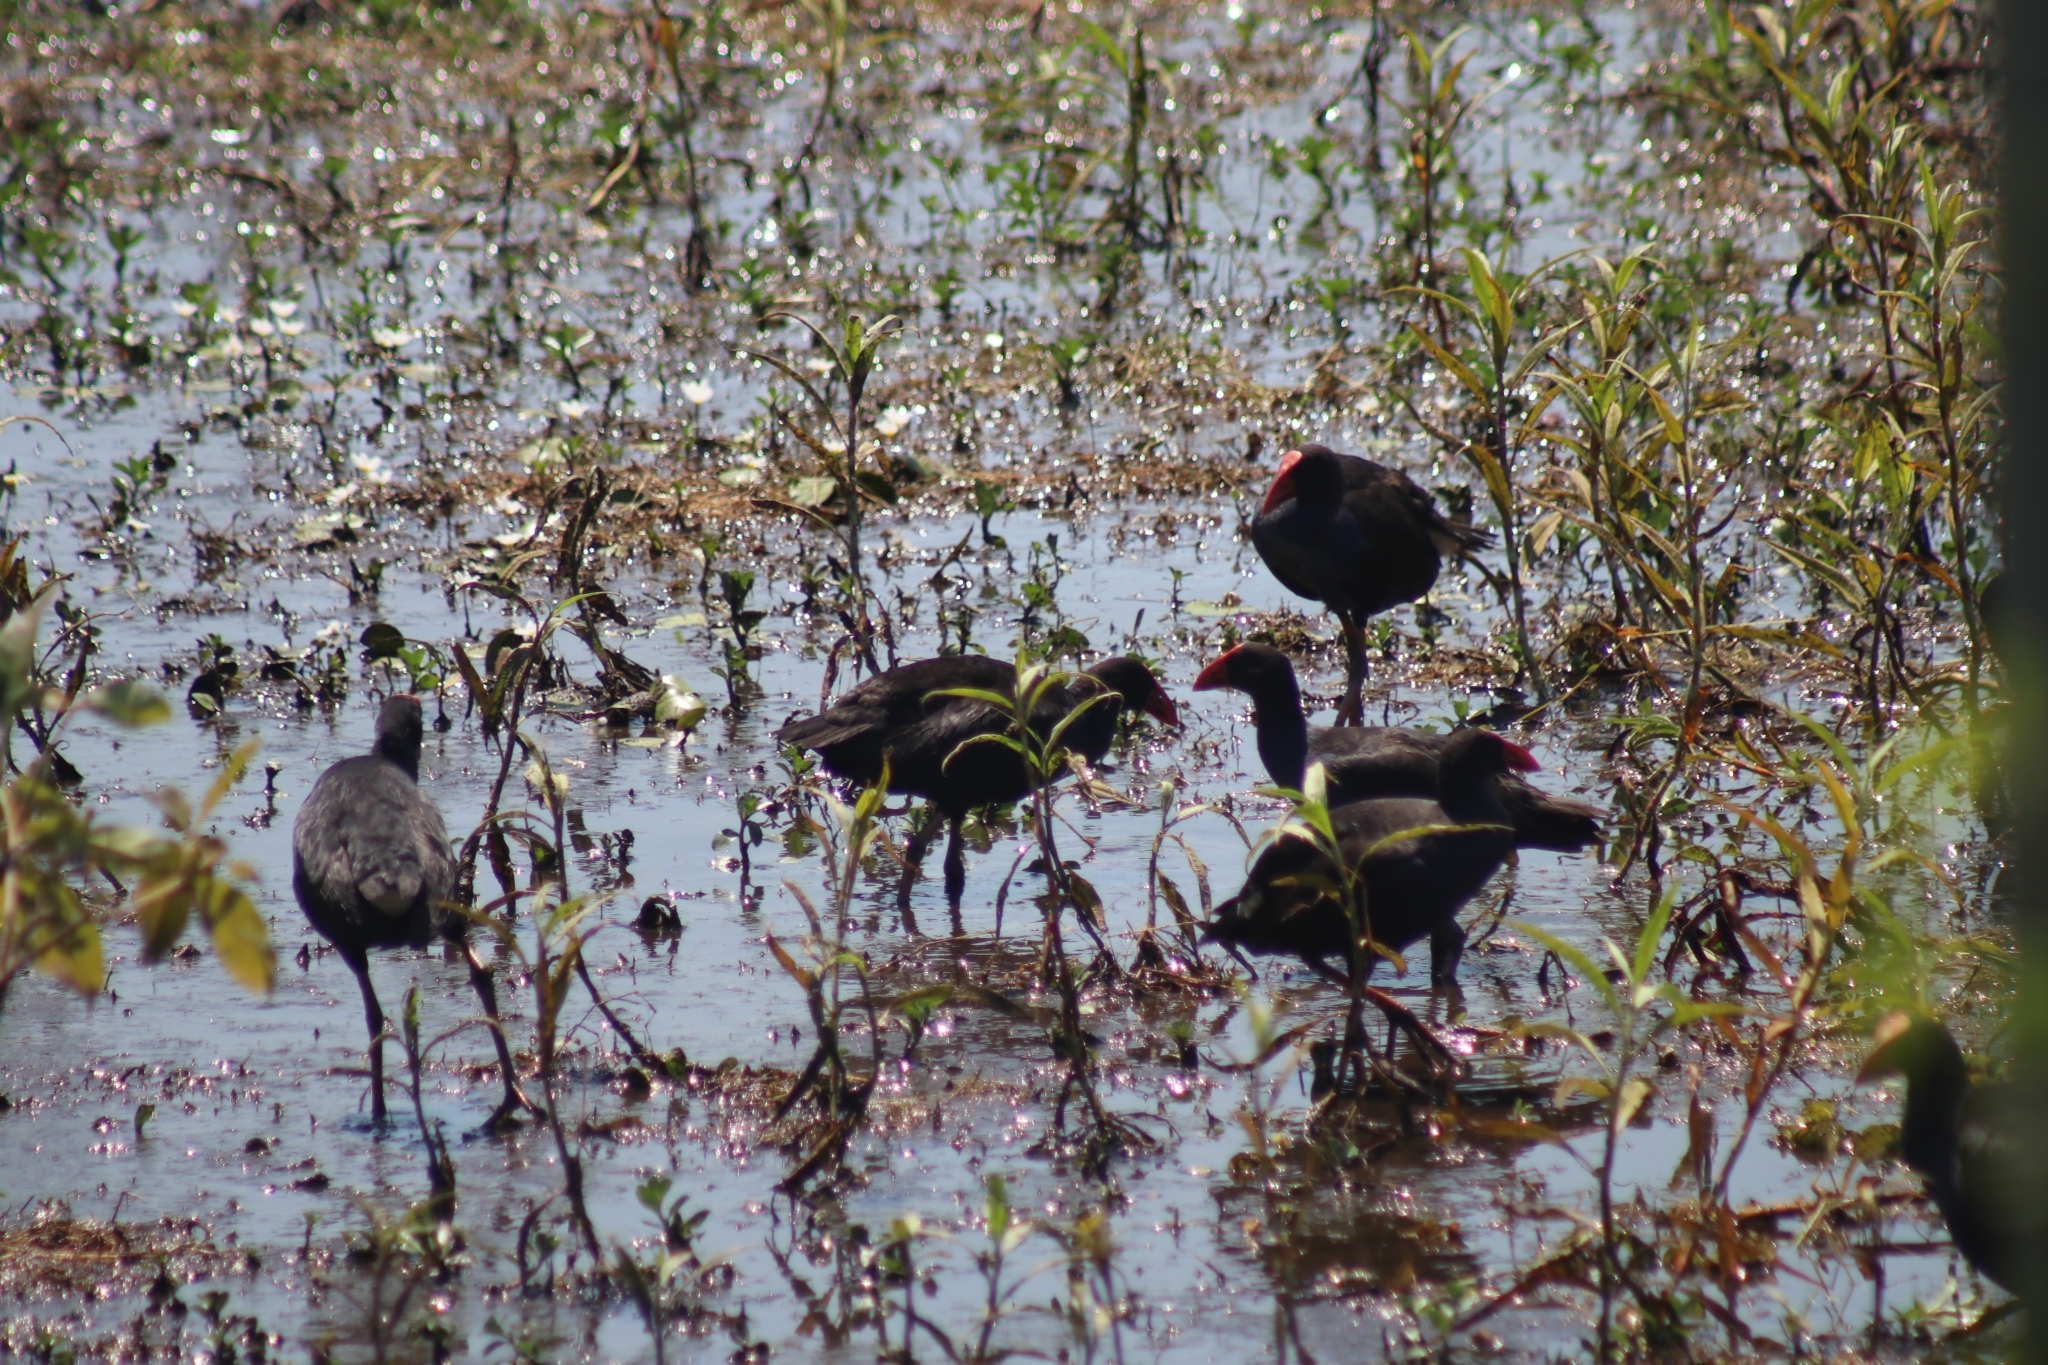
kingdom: Animalia
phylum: Chordata
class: Aves
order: Gruiformes
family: Rallidae
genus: Porphyrio
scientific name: Porphyrio melanotus
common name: Australasian swamphen
